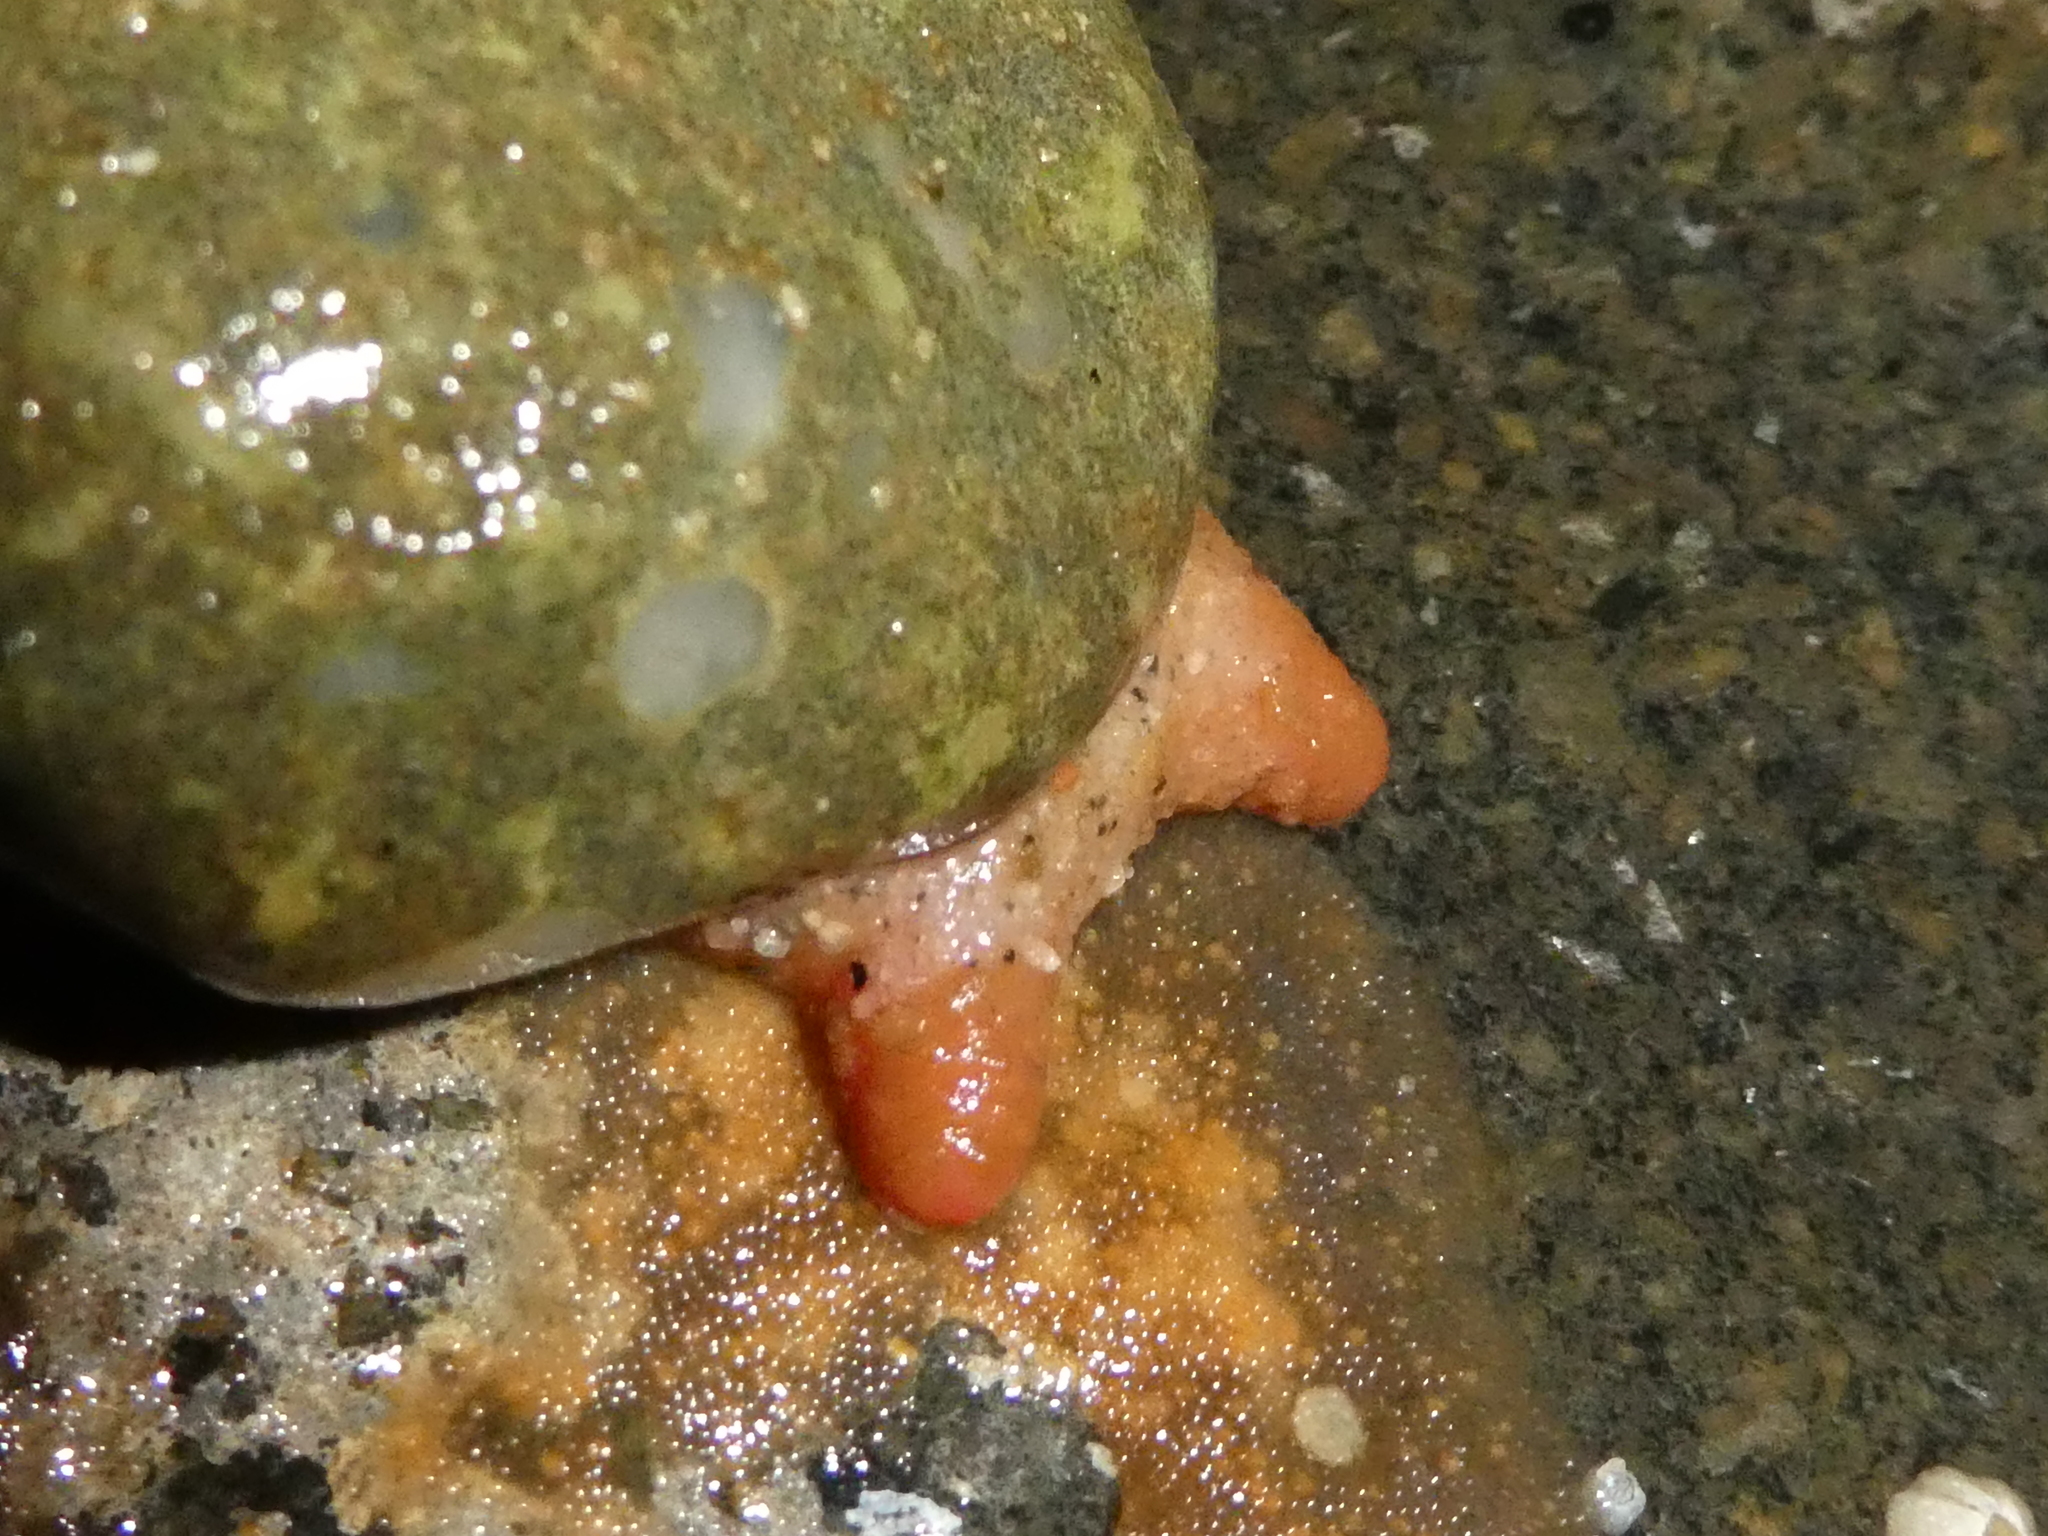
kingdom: Animalia
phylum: Chordata
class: Ascidiacea
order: Stolidobranchia
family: Pyuridae
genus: Pyura
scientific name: Pyura haustor
